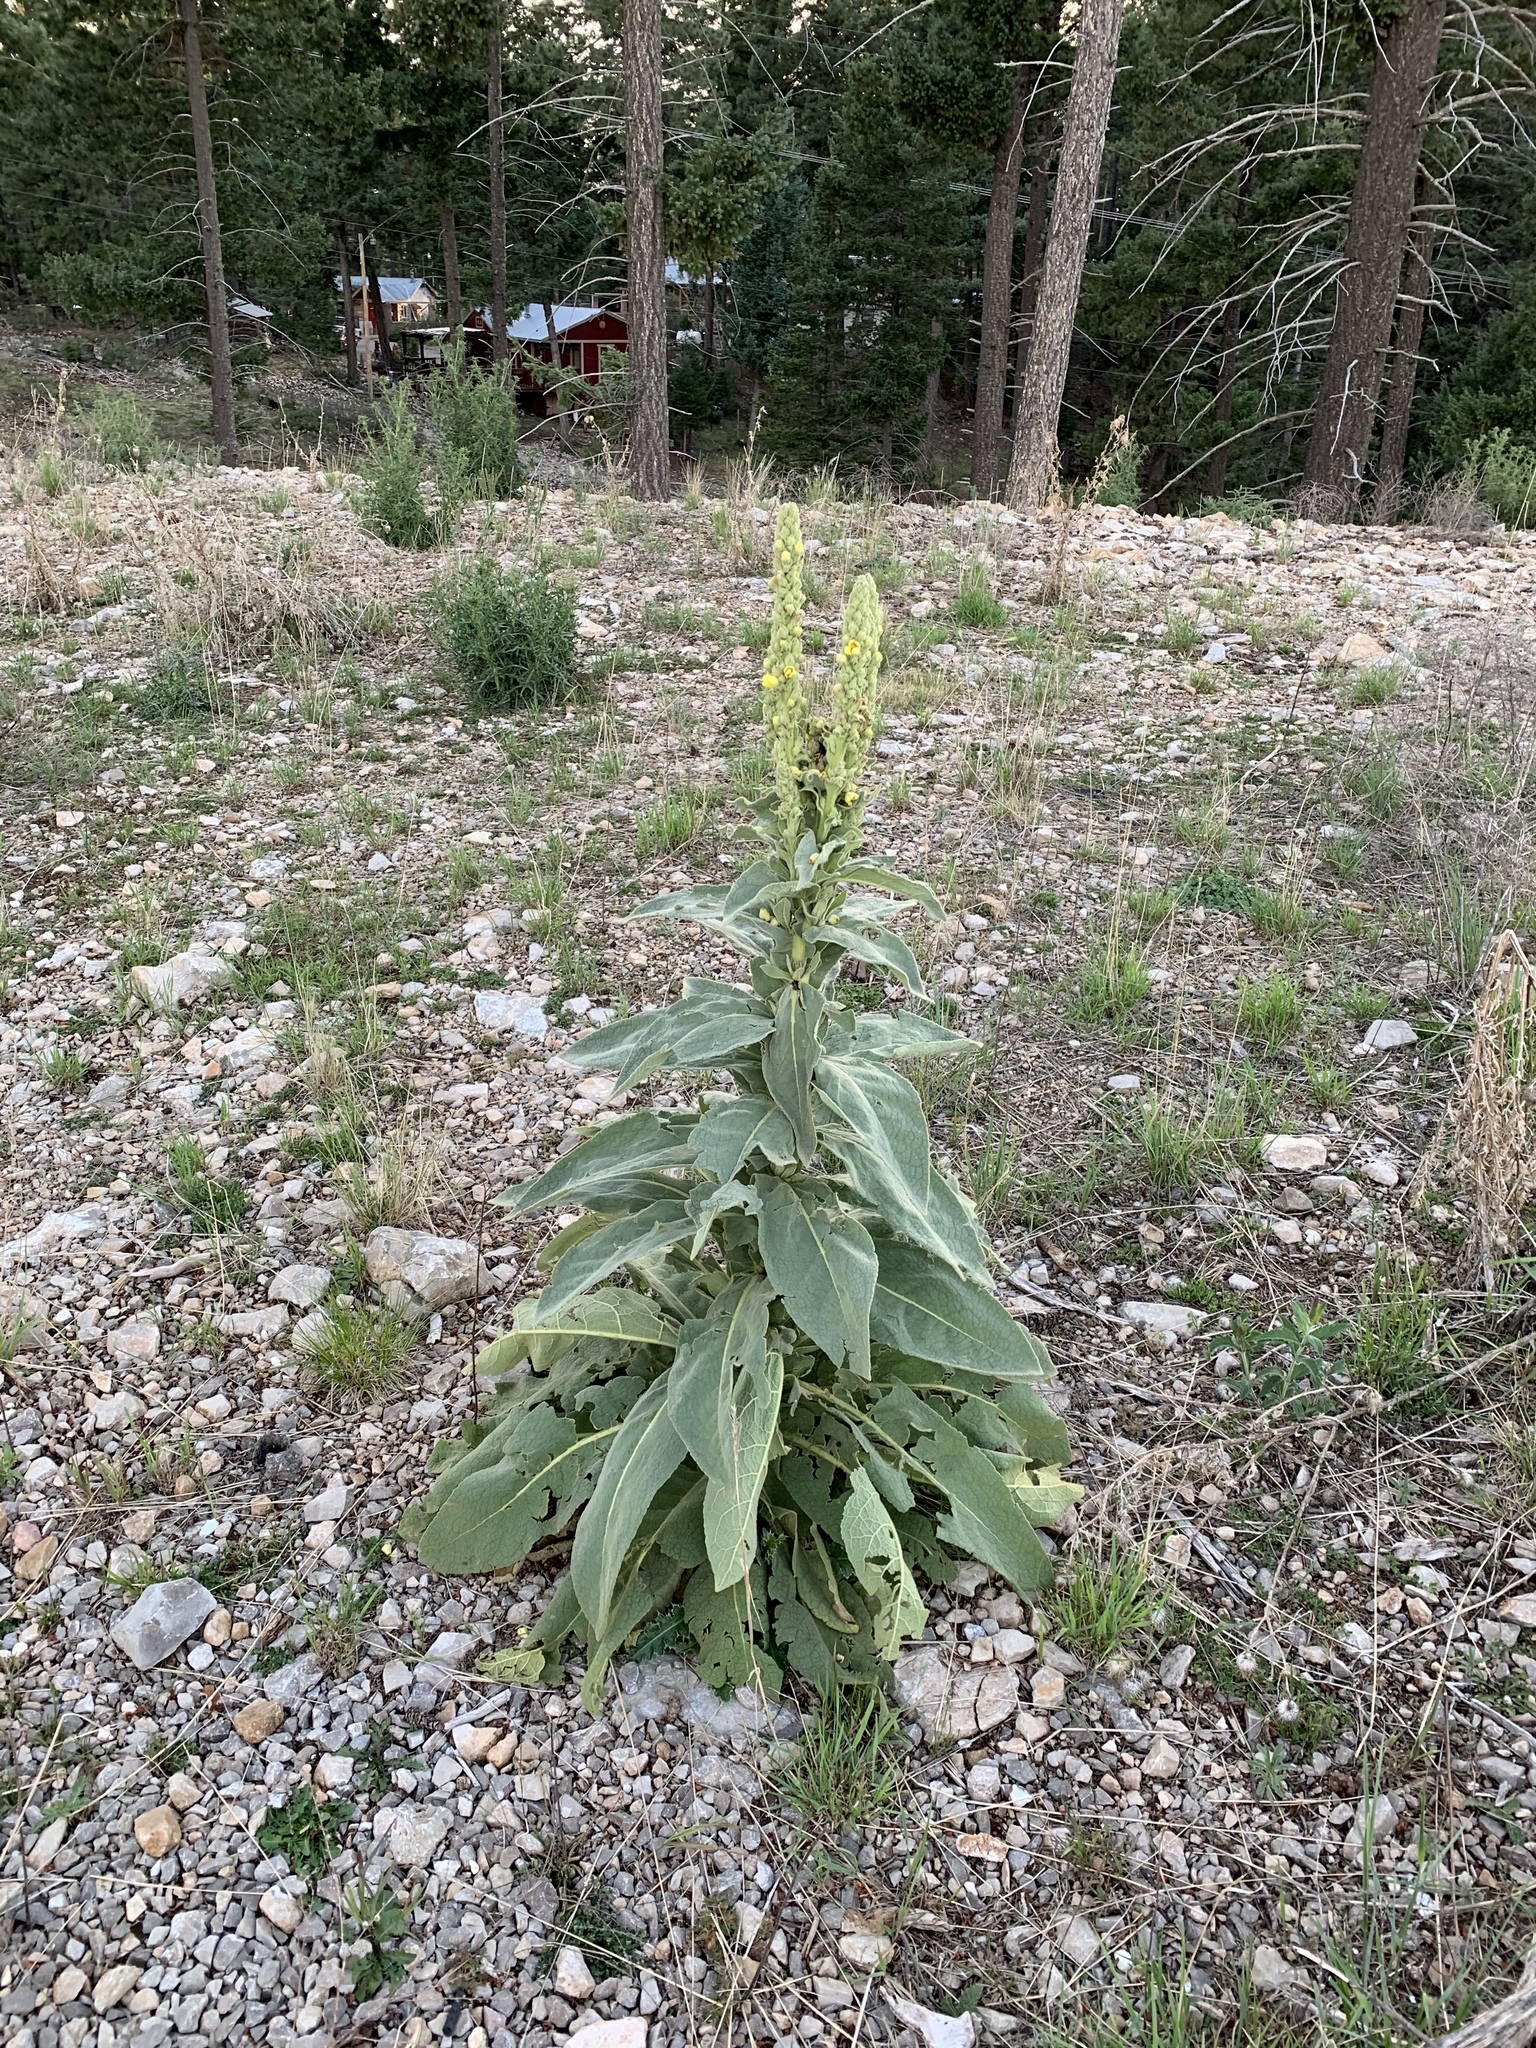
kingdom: Plantae
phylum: Tracheophyta
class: Magnoliopsida
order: Lamiales
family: Scrophulariaceae
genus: Verbascum
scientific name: Verbascum thapsus
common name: Common mullein
